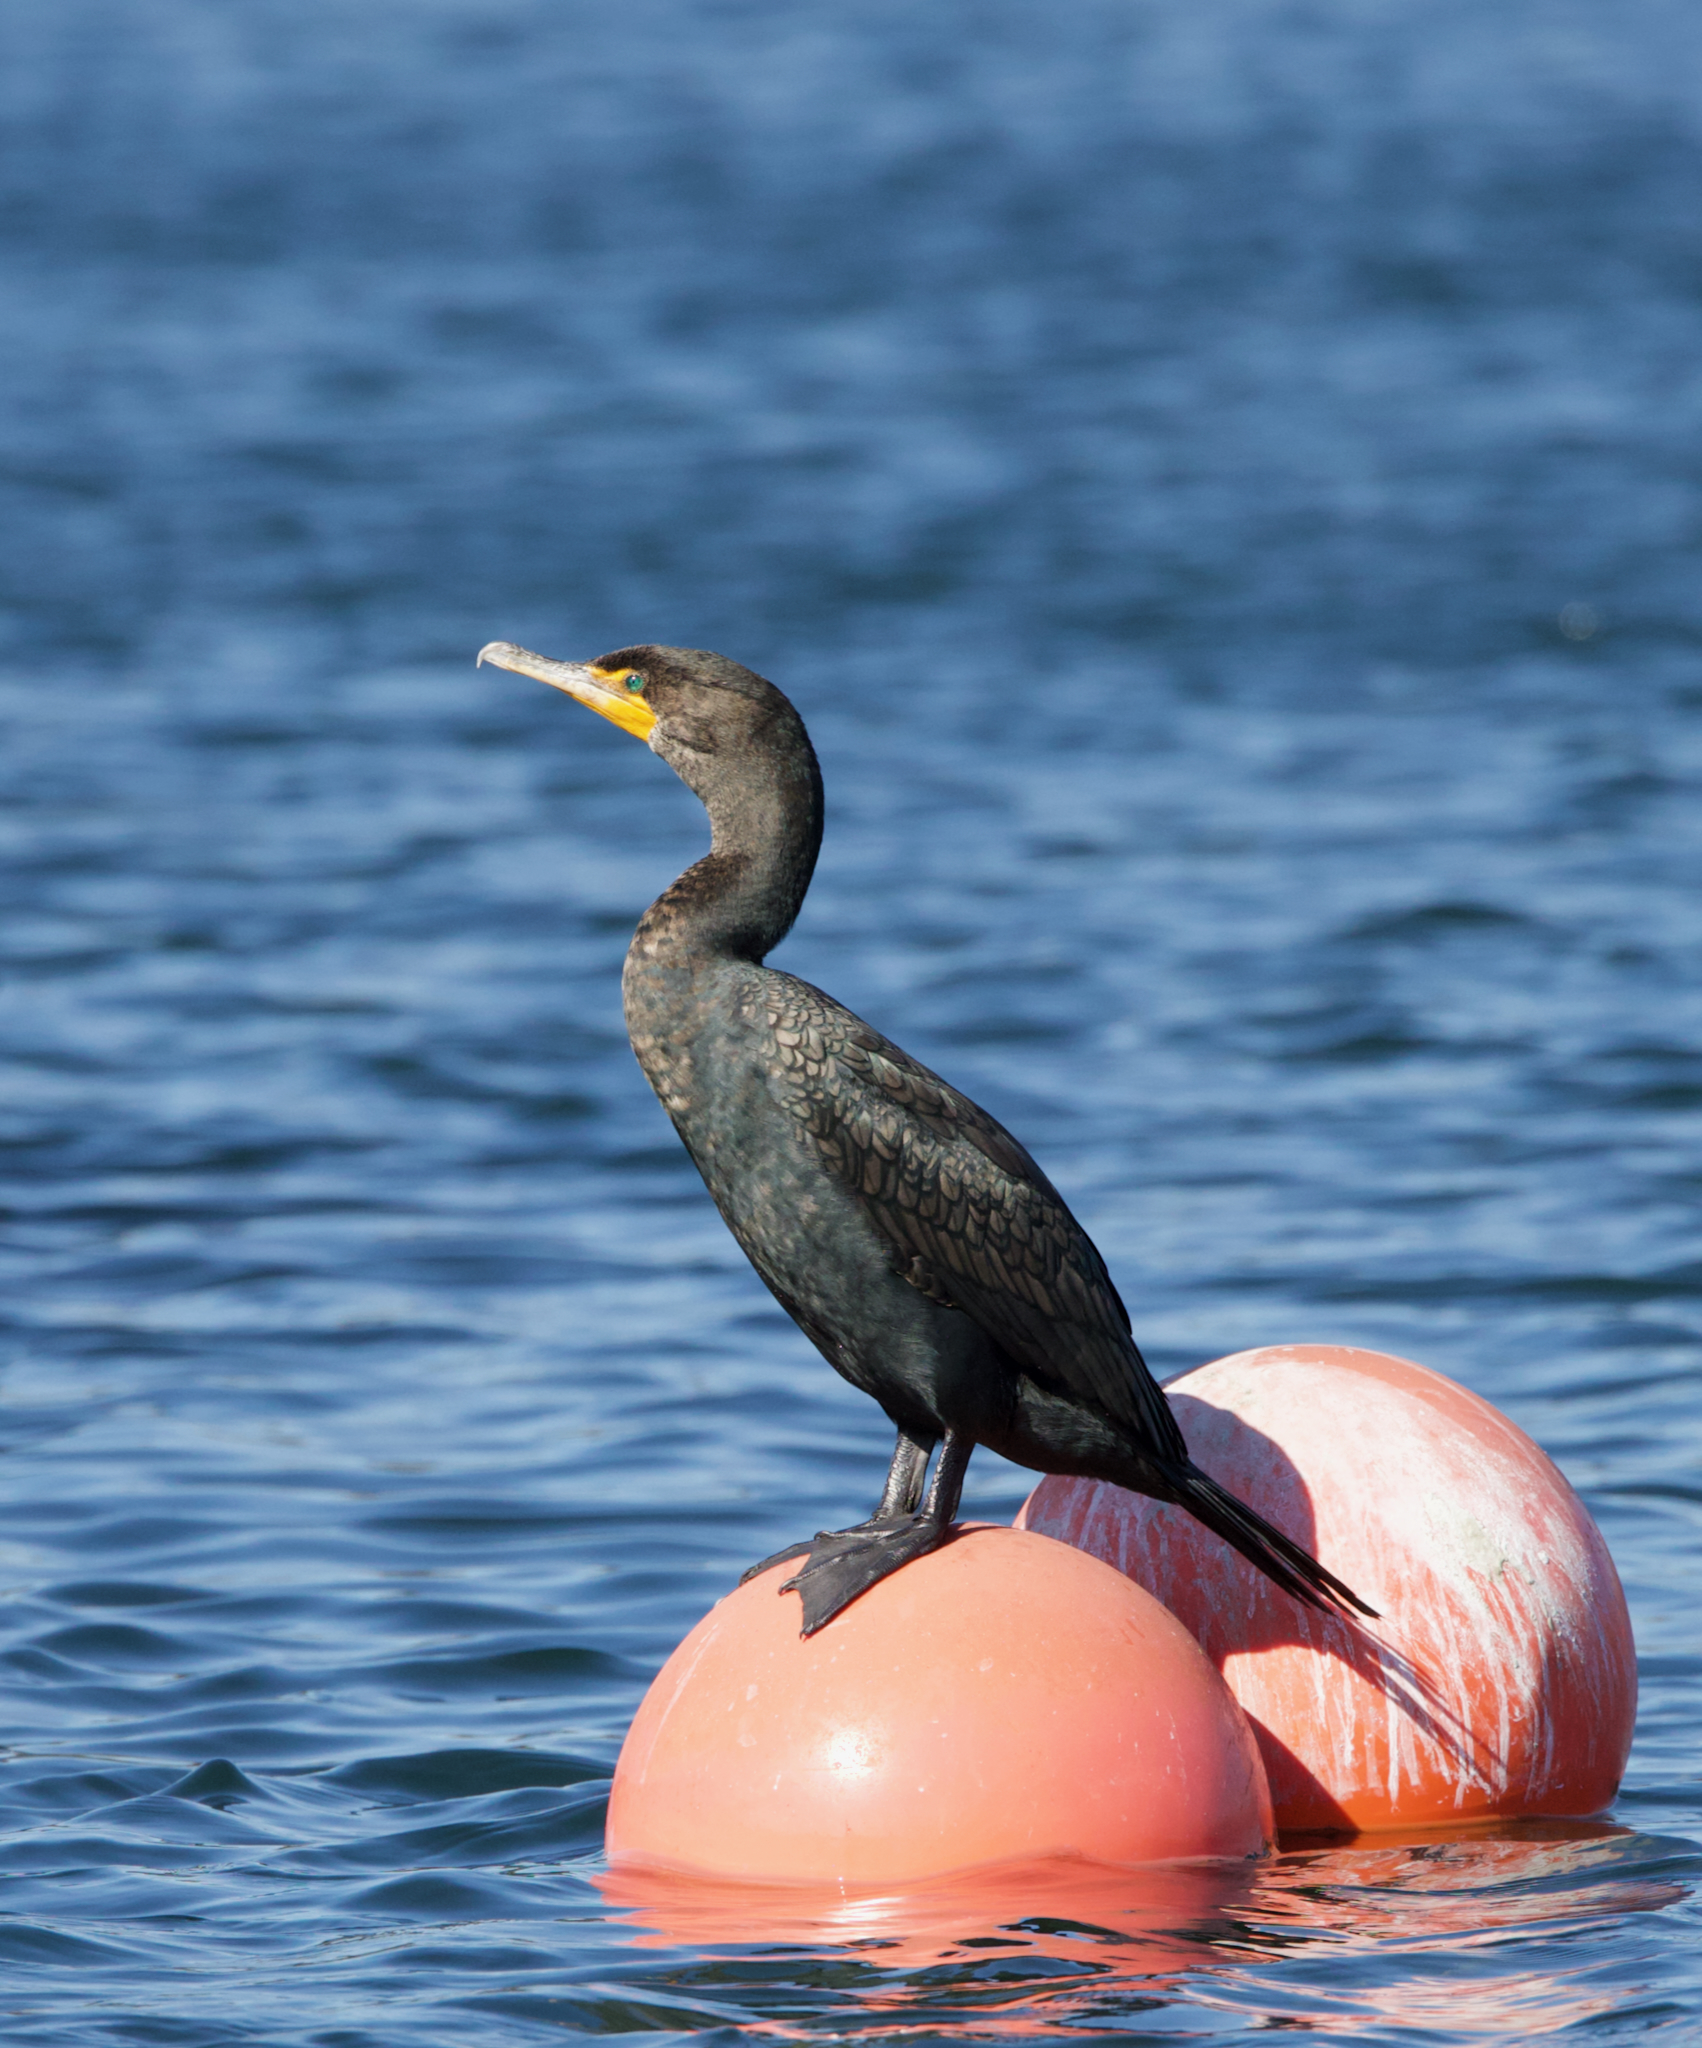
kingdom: Animalia
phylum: Chordata
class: Aves
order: Suliformes
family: Phalacrocoracidae
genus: Phalacrocorax
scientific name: Phalacrocorax auritus
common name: Double-crested cormorant
